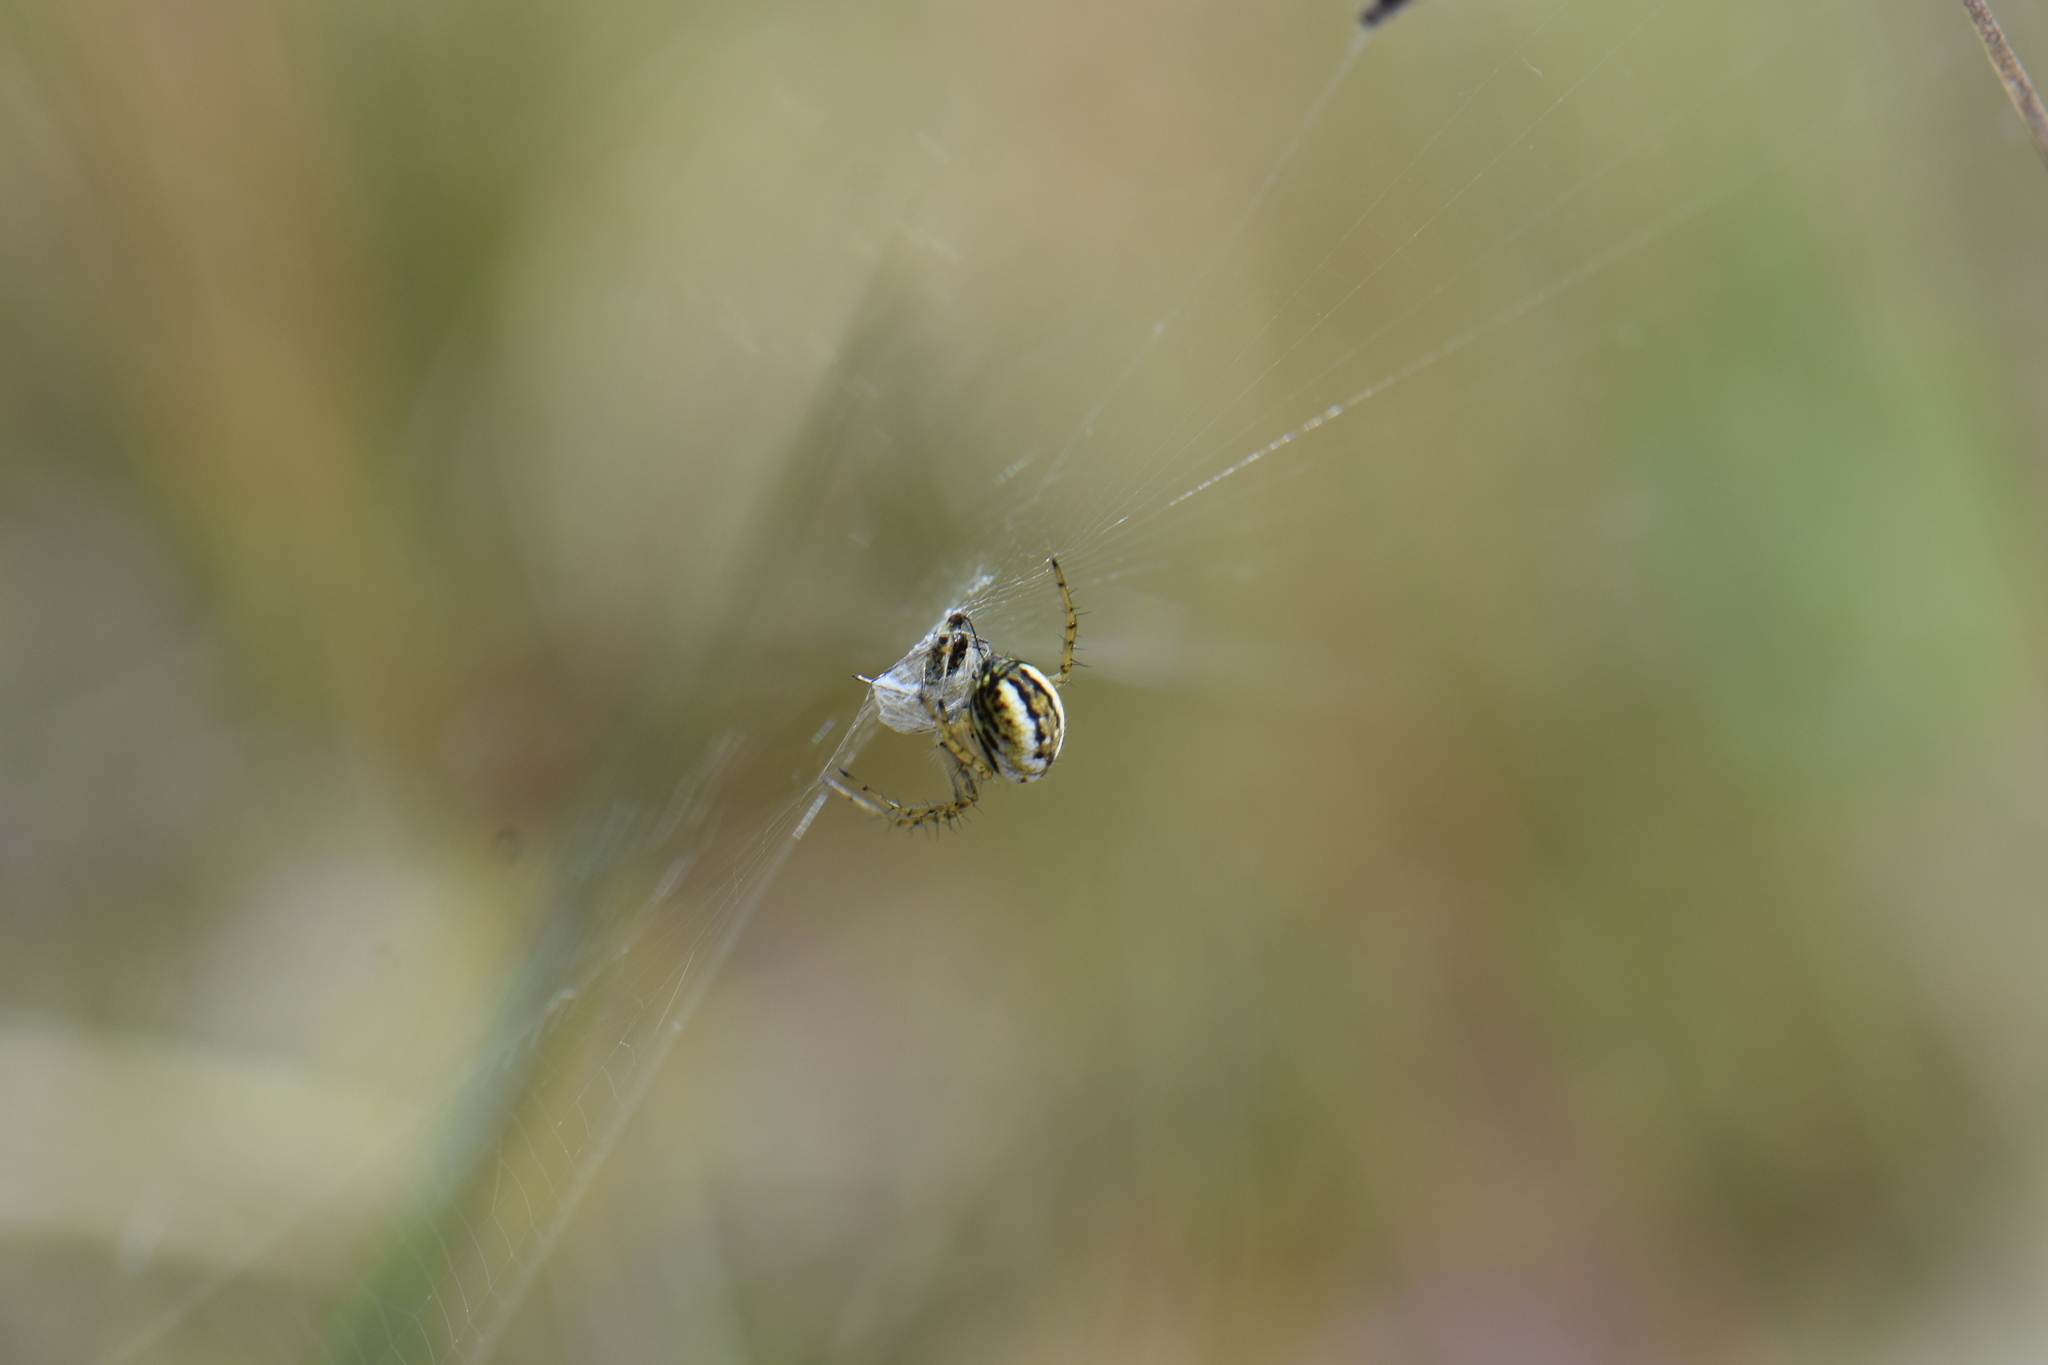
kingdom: Animalia
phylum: Arthropoda
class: Arachnida
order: Araneae
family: Araneidae
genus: Mangora
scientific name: Mangora acalypha
